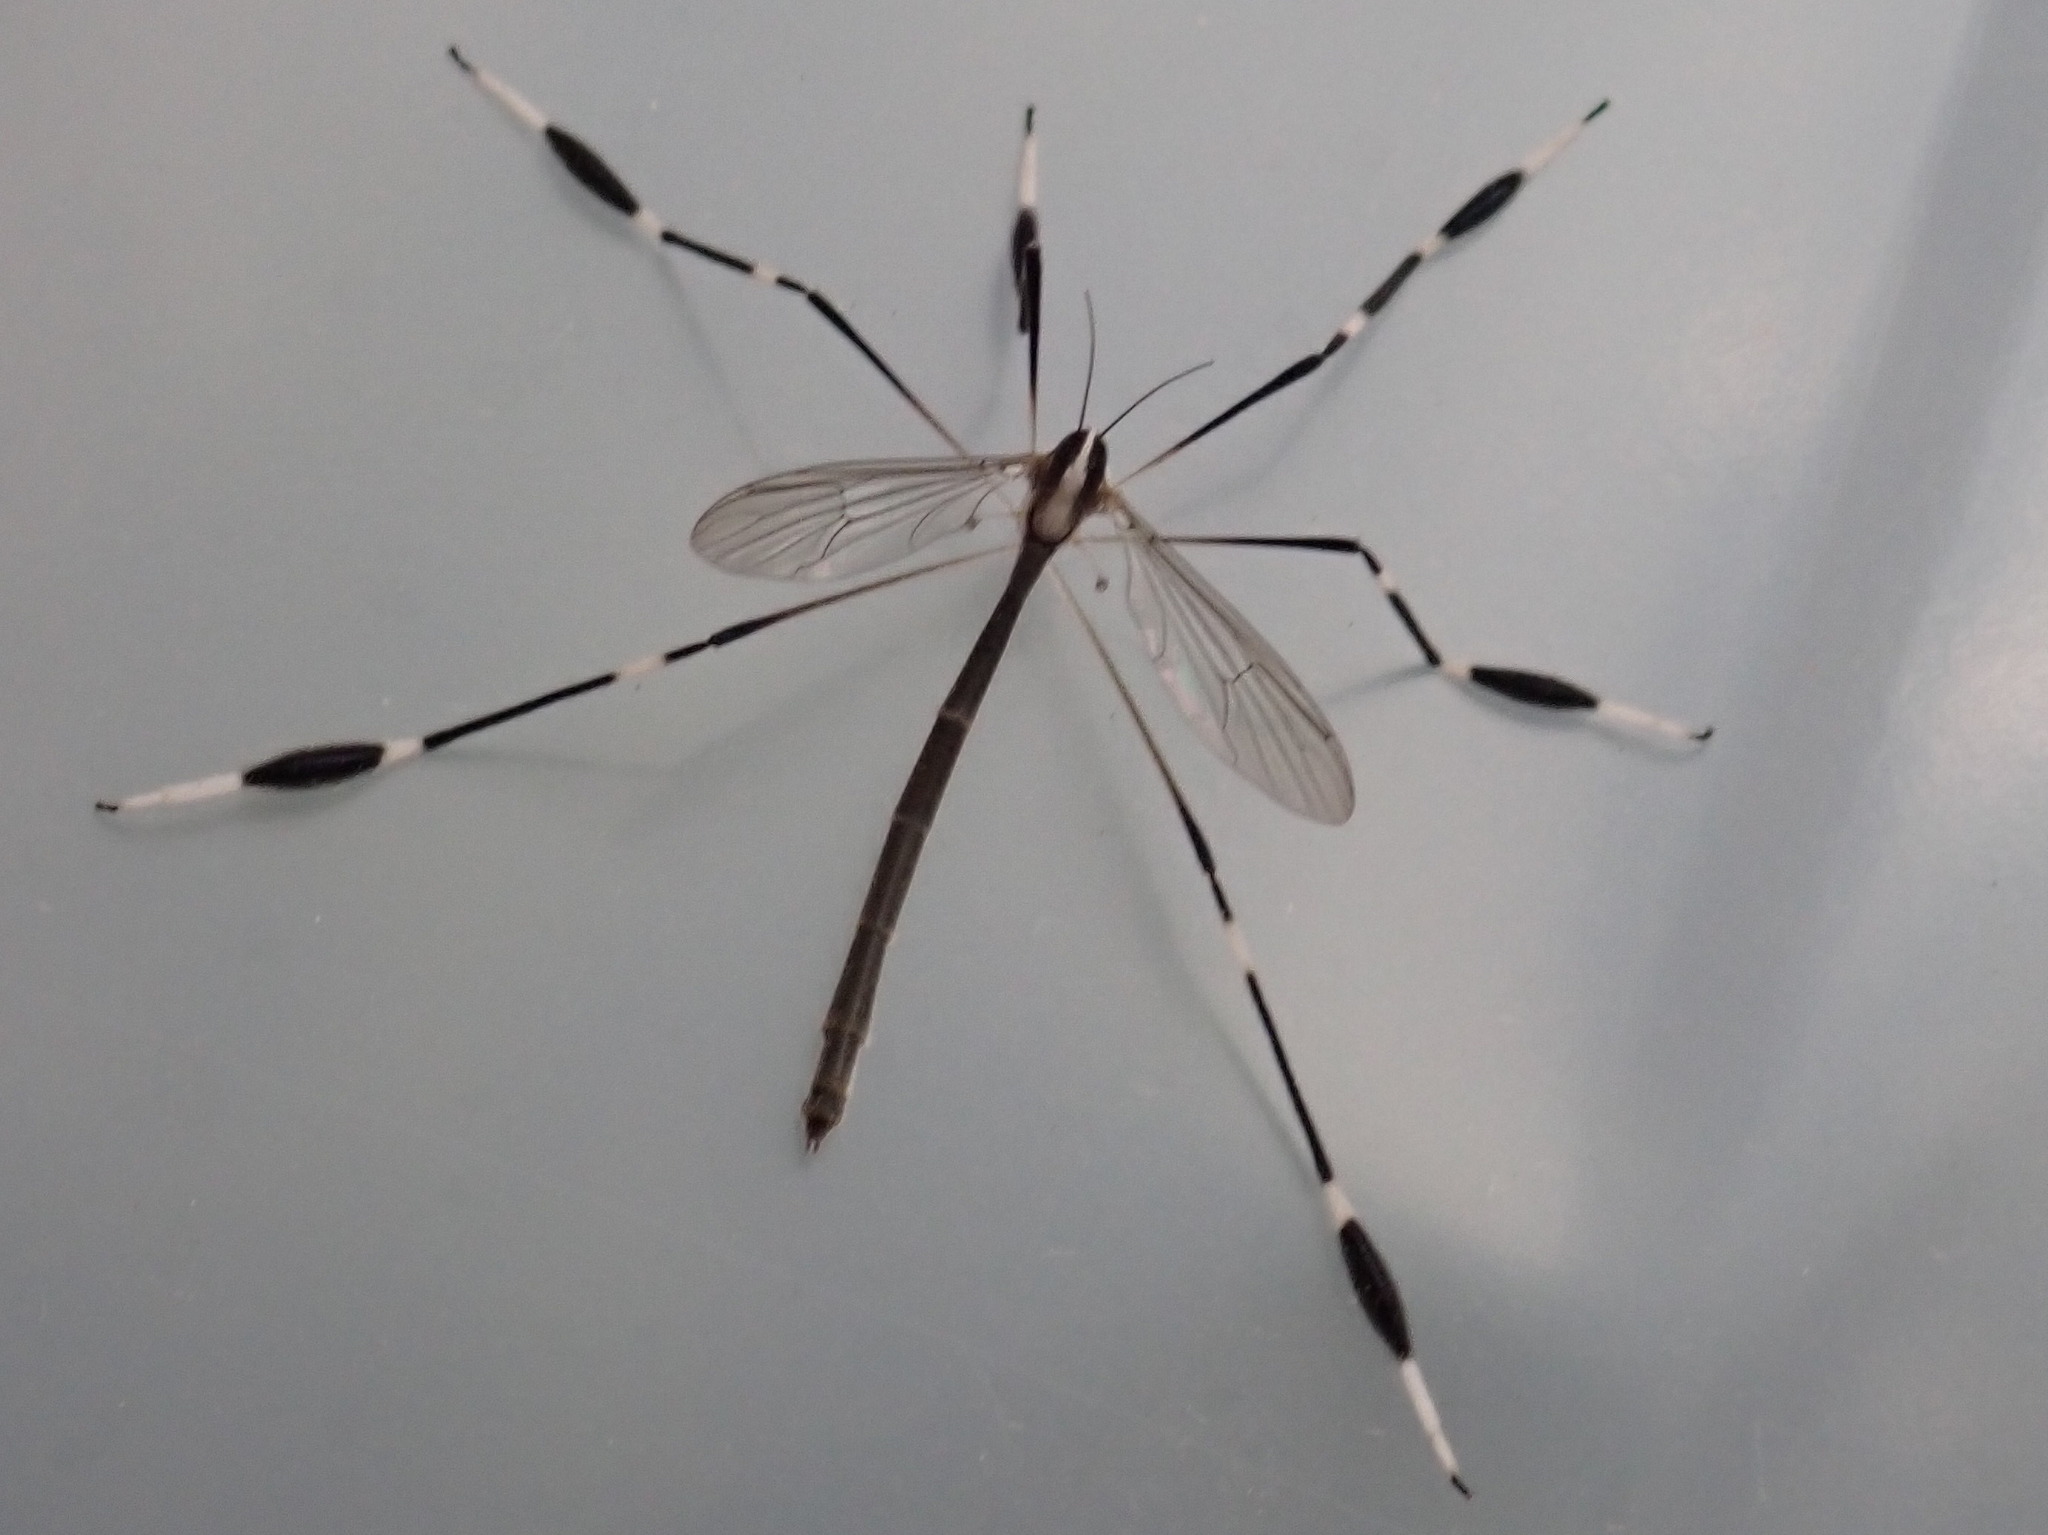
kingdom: Animalia
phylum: Arthropoda
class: Insecta
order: Diptera
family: Ptychopteridae
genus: Bittacomorpha
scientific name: Bittacomorpha clavipes
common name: Eastern phantom crane fly
